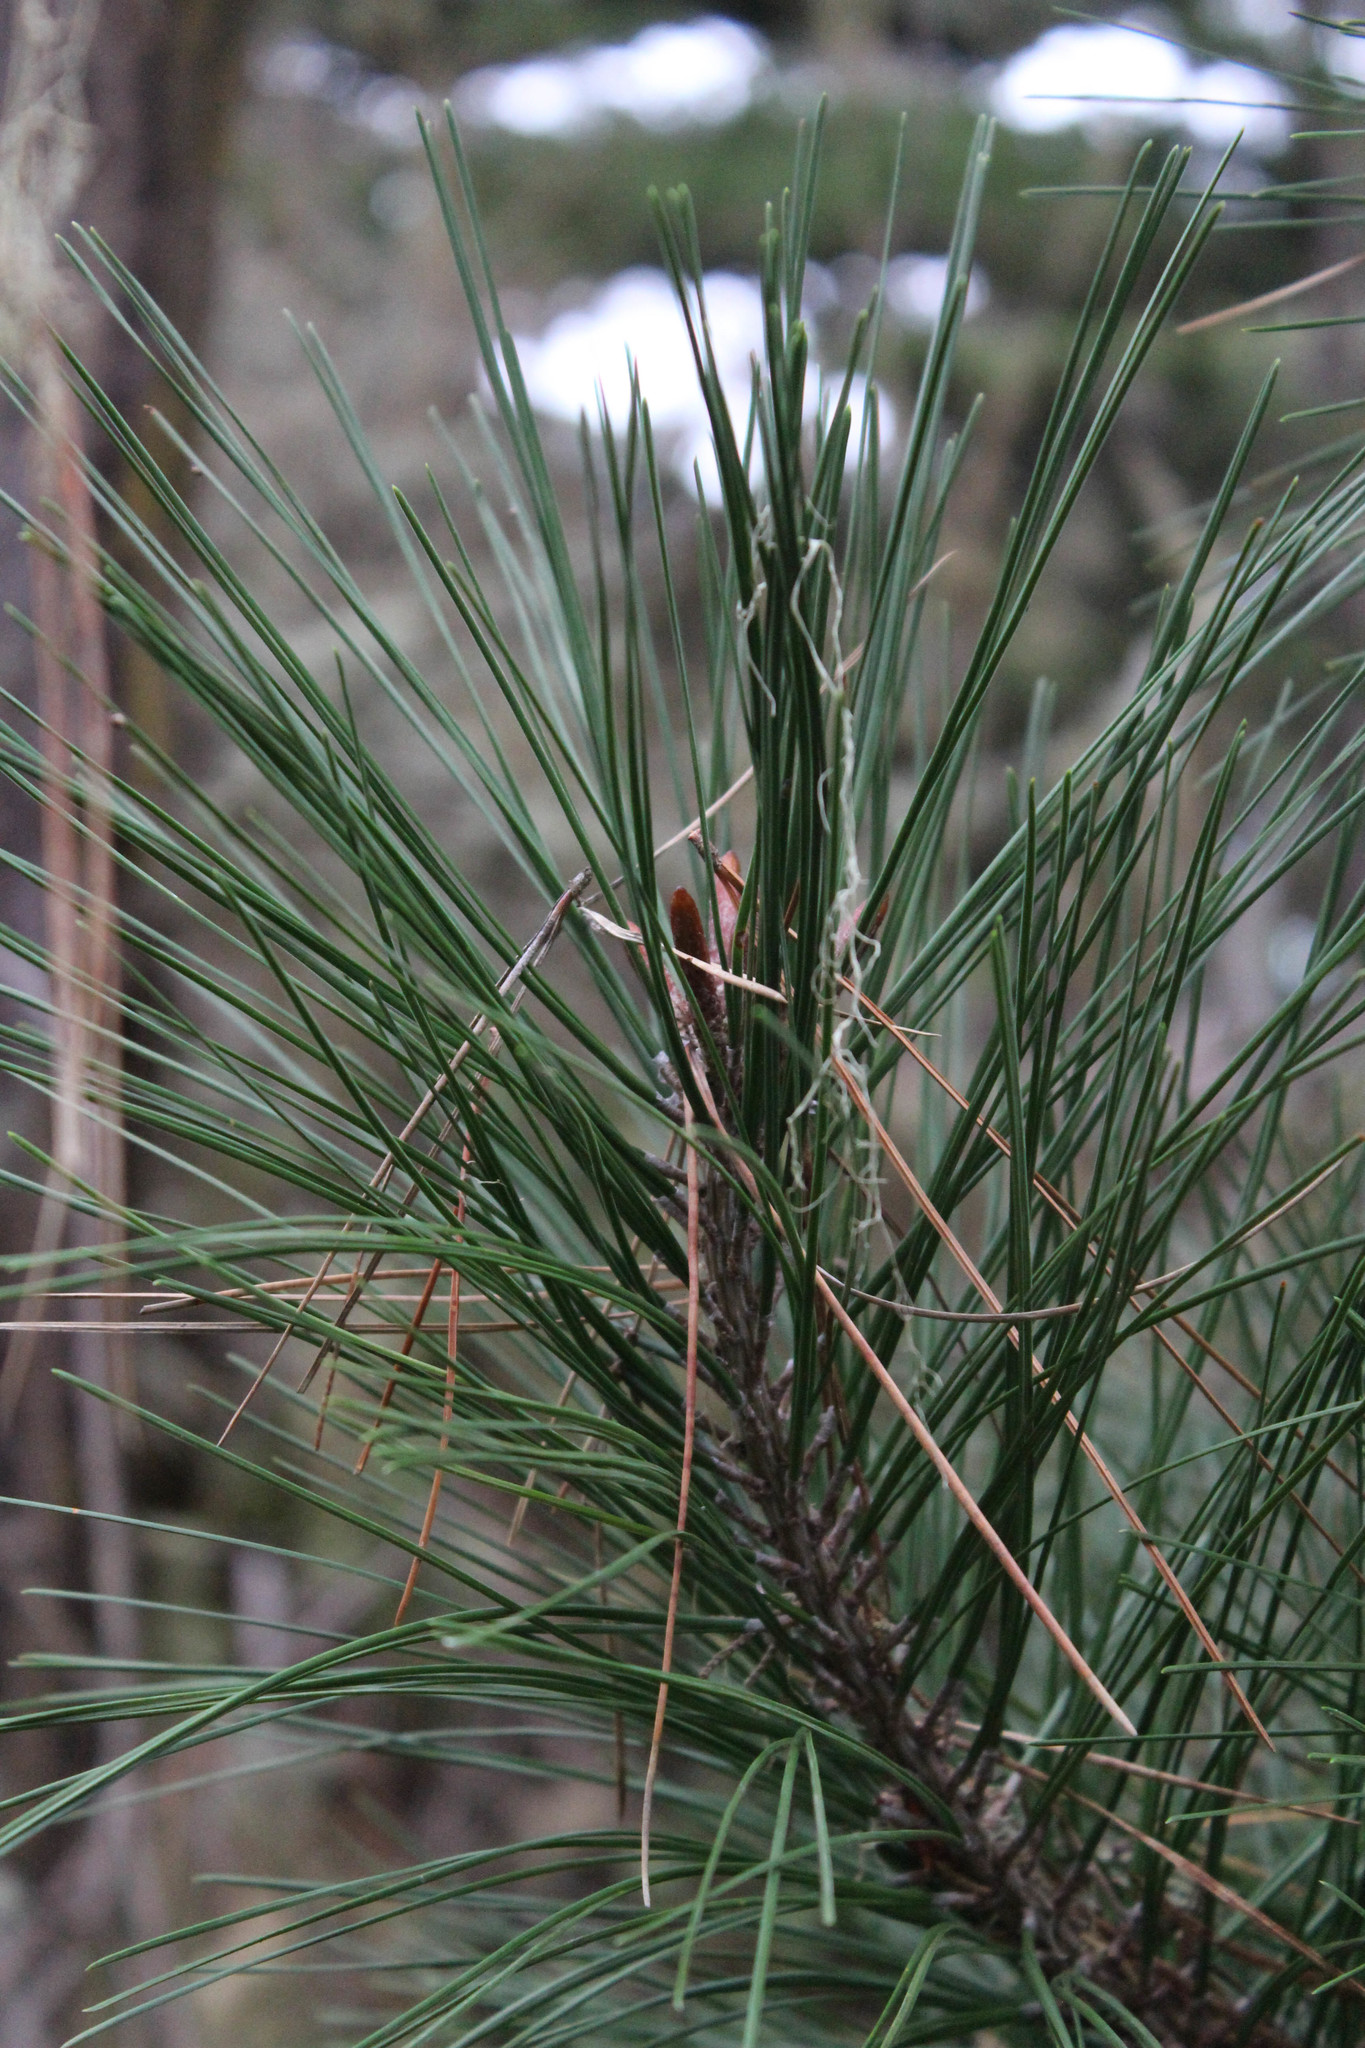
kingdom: Plantae
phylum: Tracheophyta
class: Pinopsida
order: Pinales
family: Pinaceae
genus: Pinus
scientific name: Pinus radiata
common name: Monterey pine
